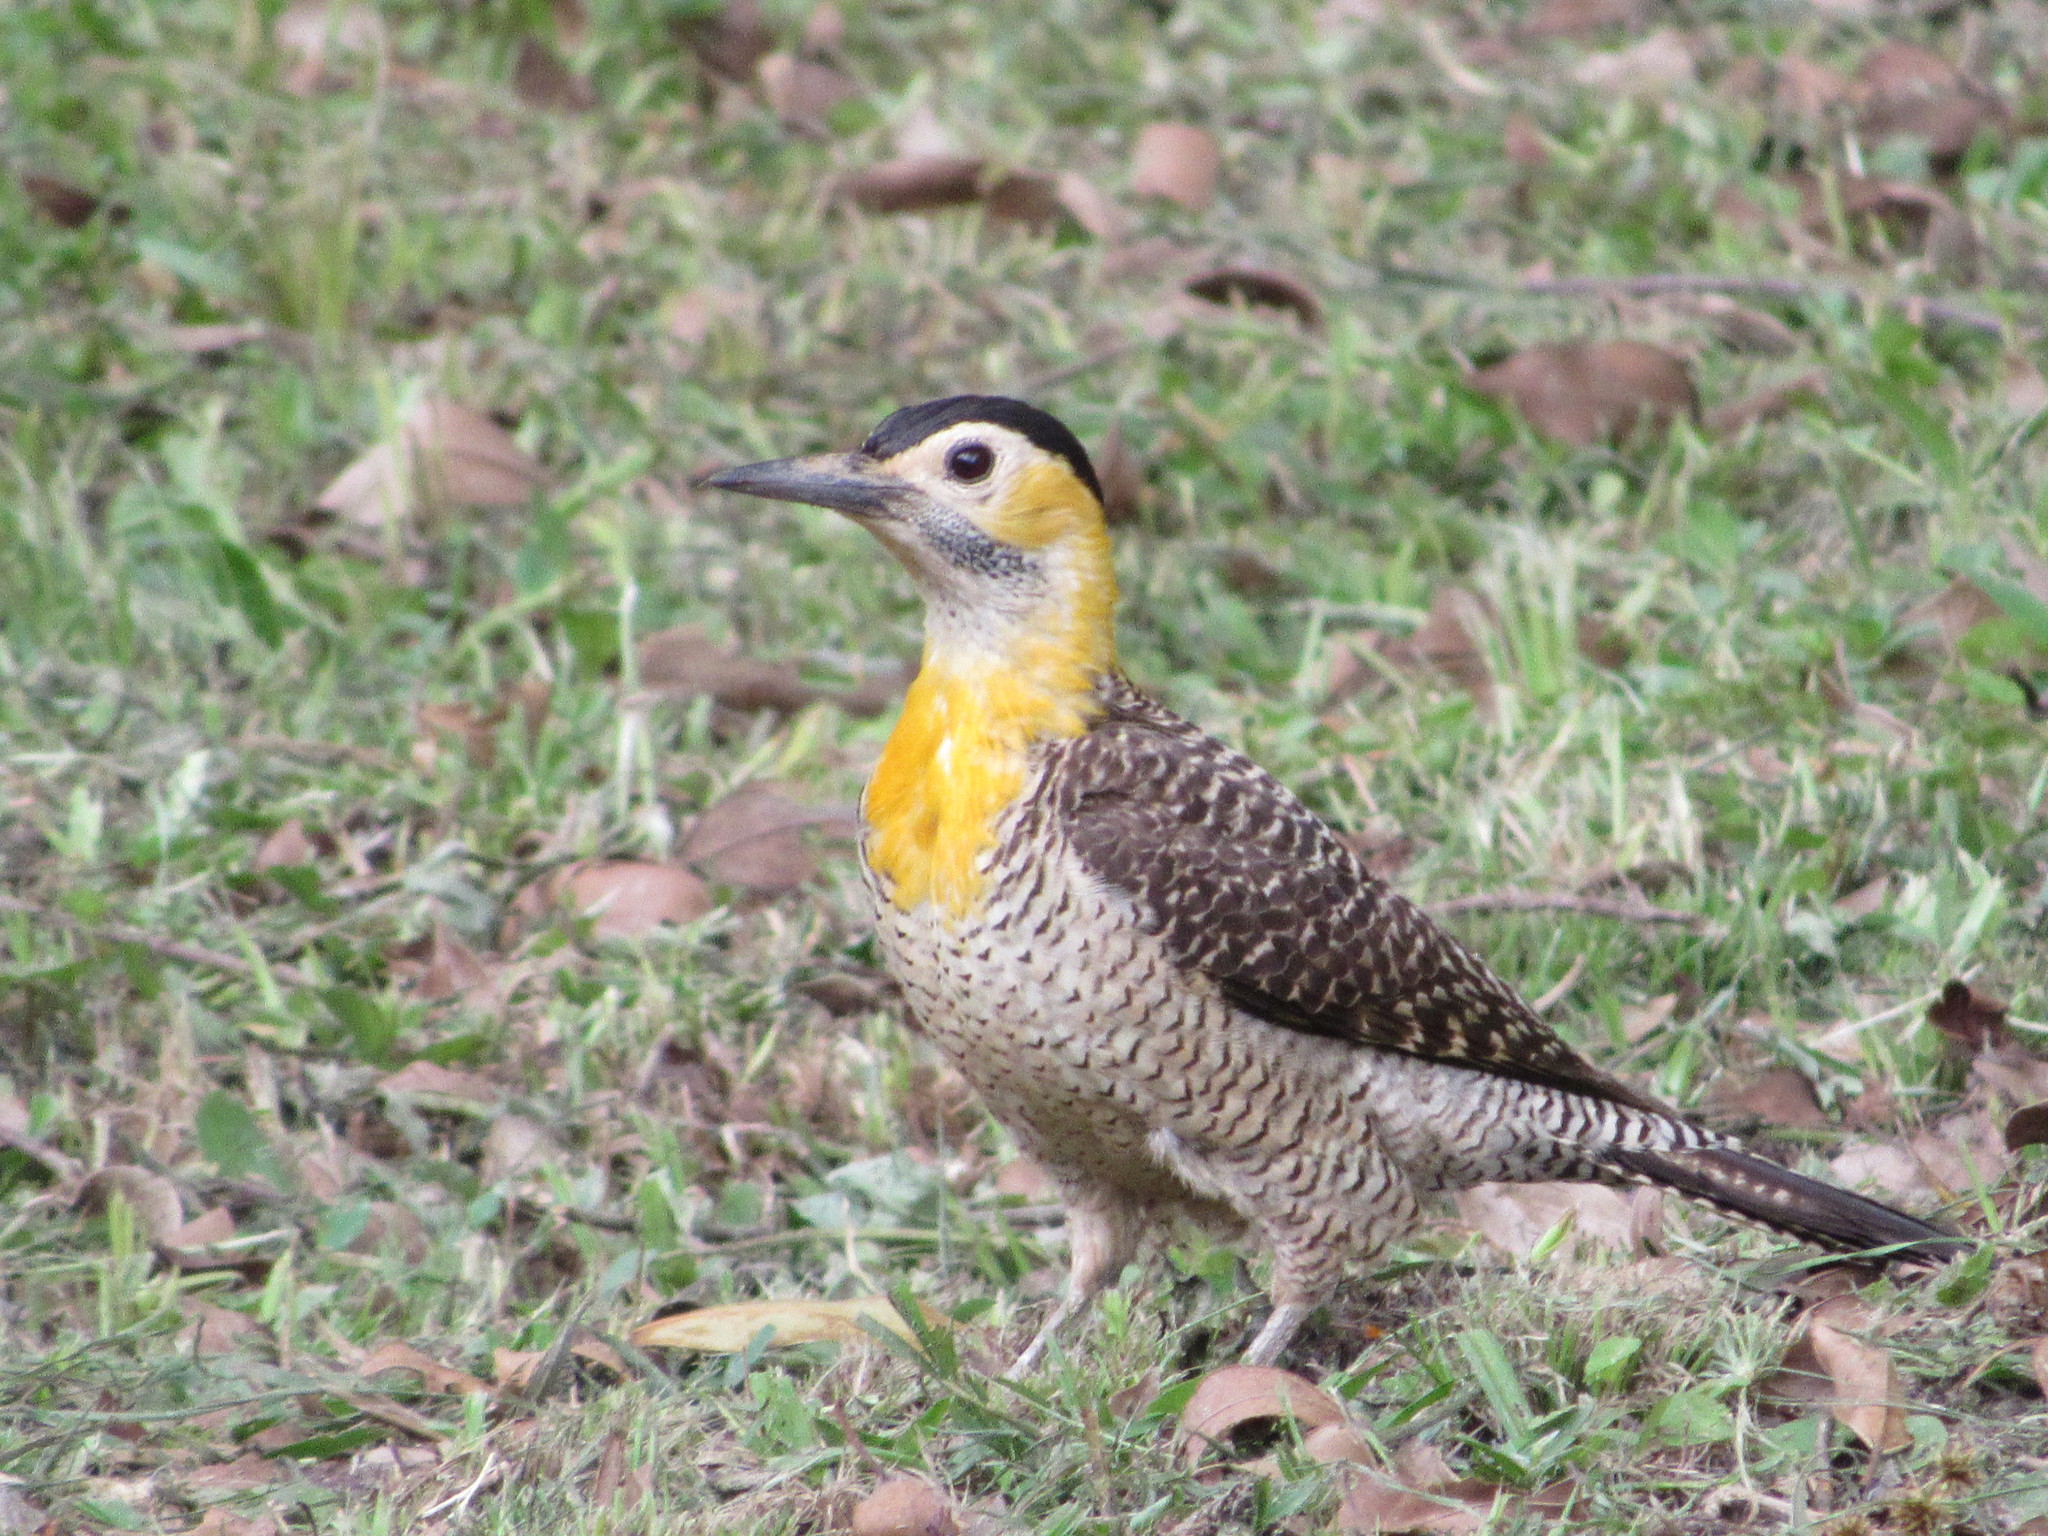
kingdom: Animalia
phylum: Chordata
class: Aves
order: Piciformes
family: Picidae
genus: Colaptes
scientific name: Colaptes campestris
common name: Campo flicker
